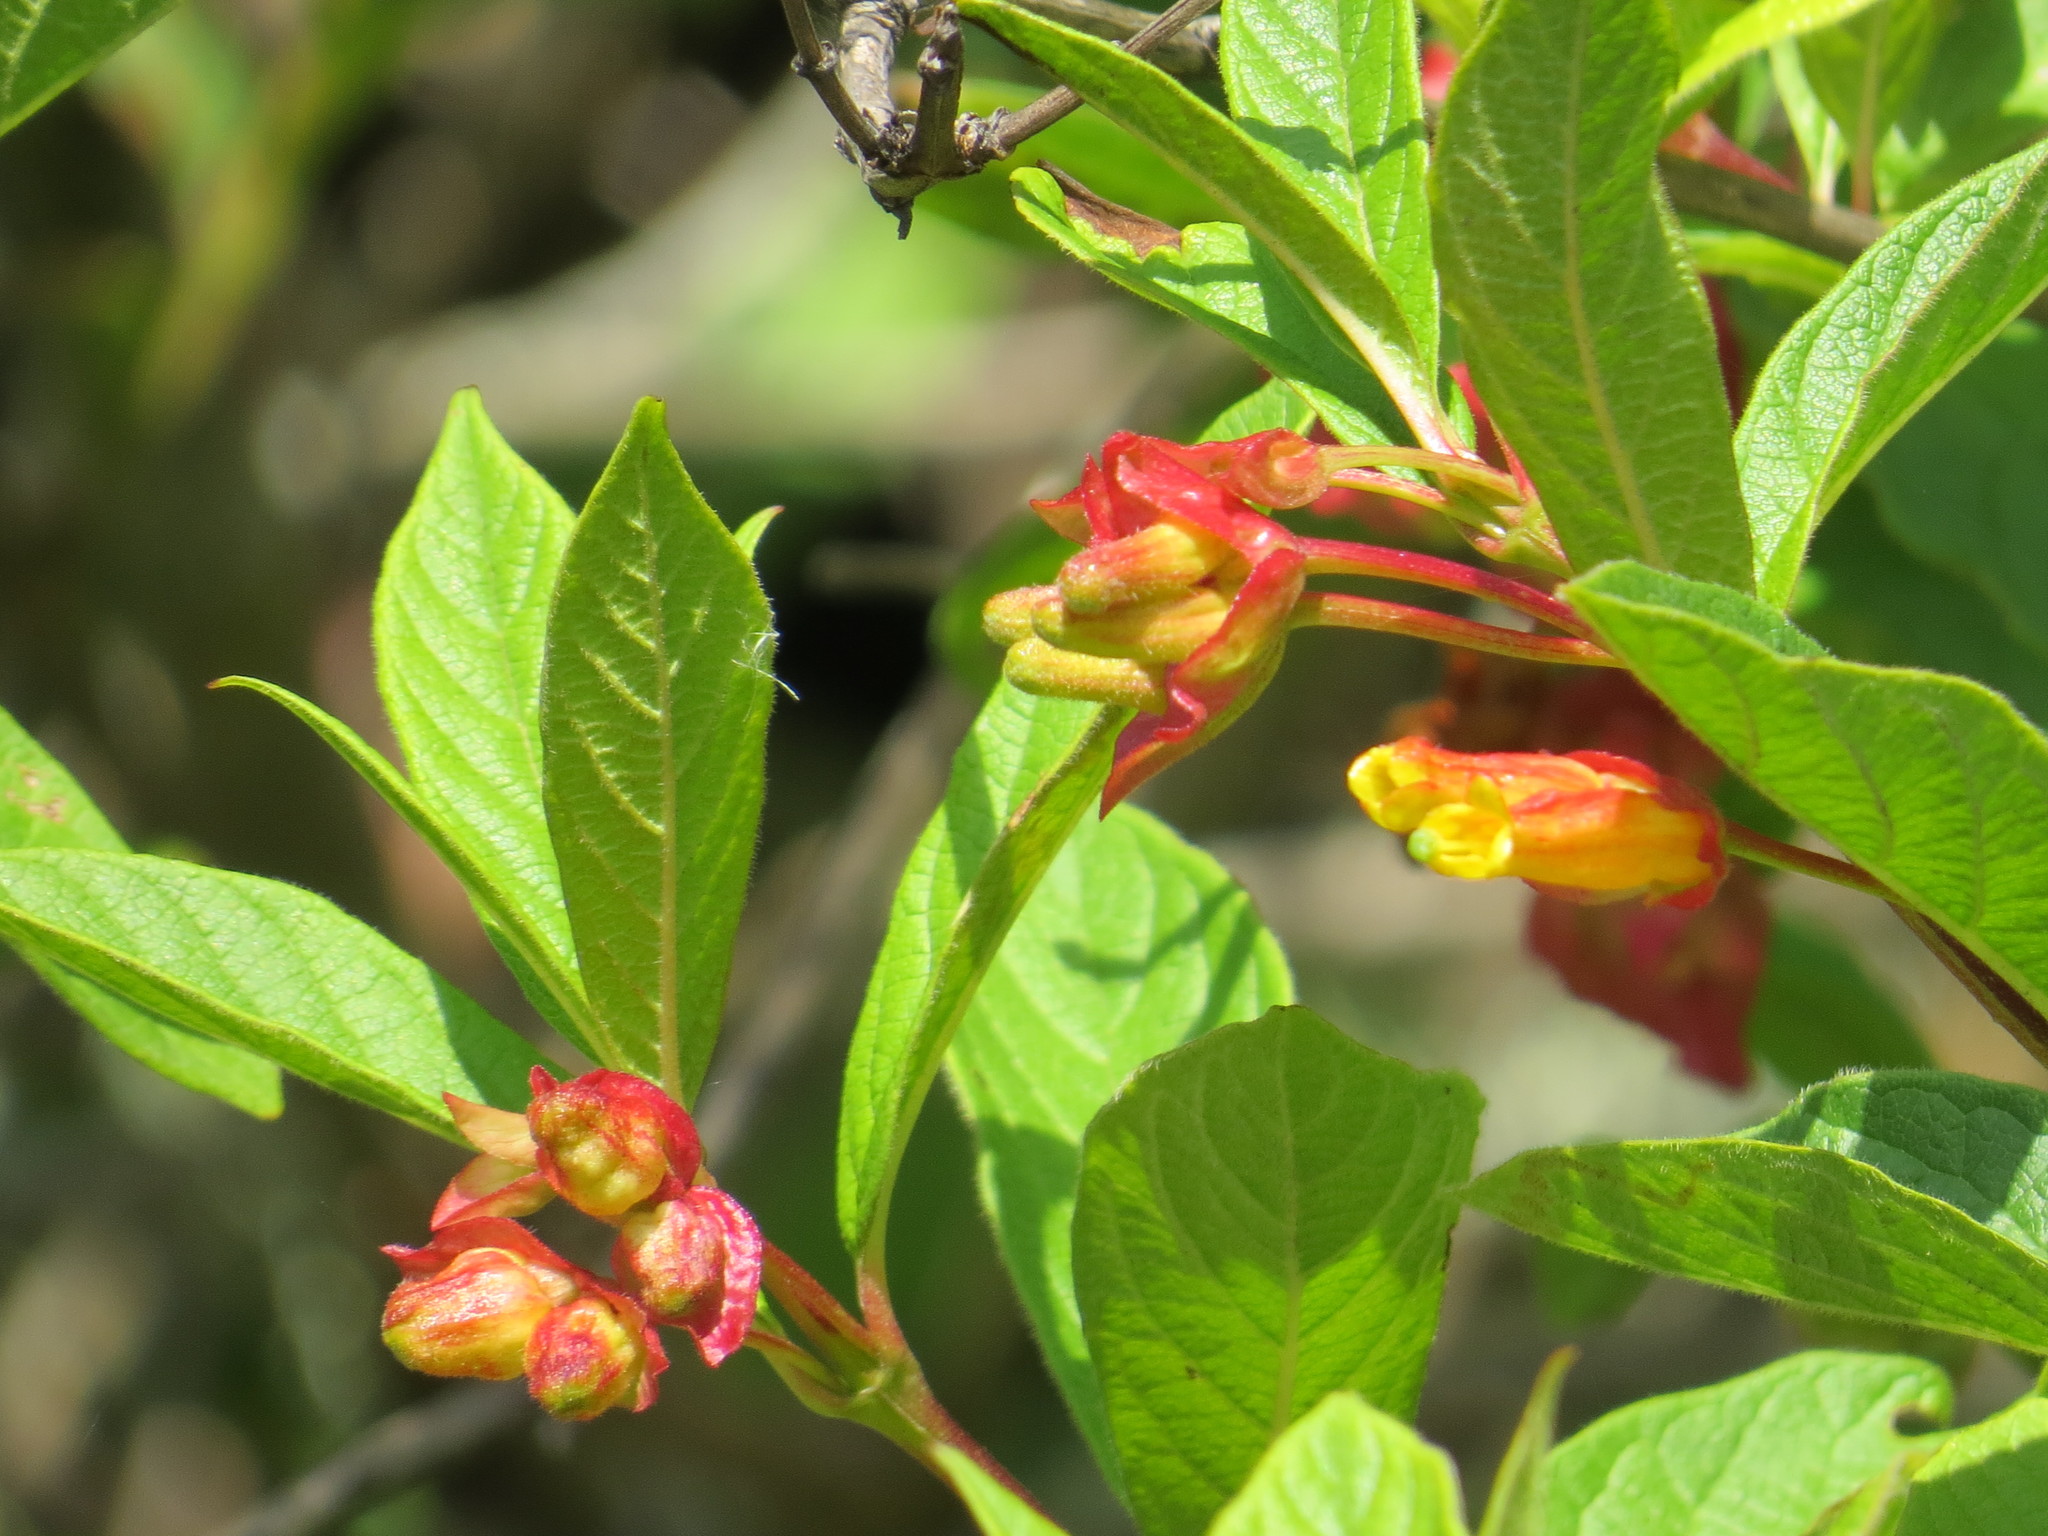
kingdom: Plantae
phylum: Tracheophyta
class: Magnoliopsida
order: Dipsacales
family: Caprifoliaceae
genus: Lonicera
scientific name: Lonicera involucrata
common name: Californian honeysuckle
